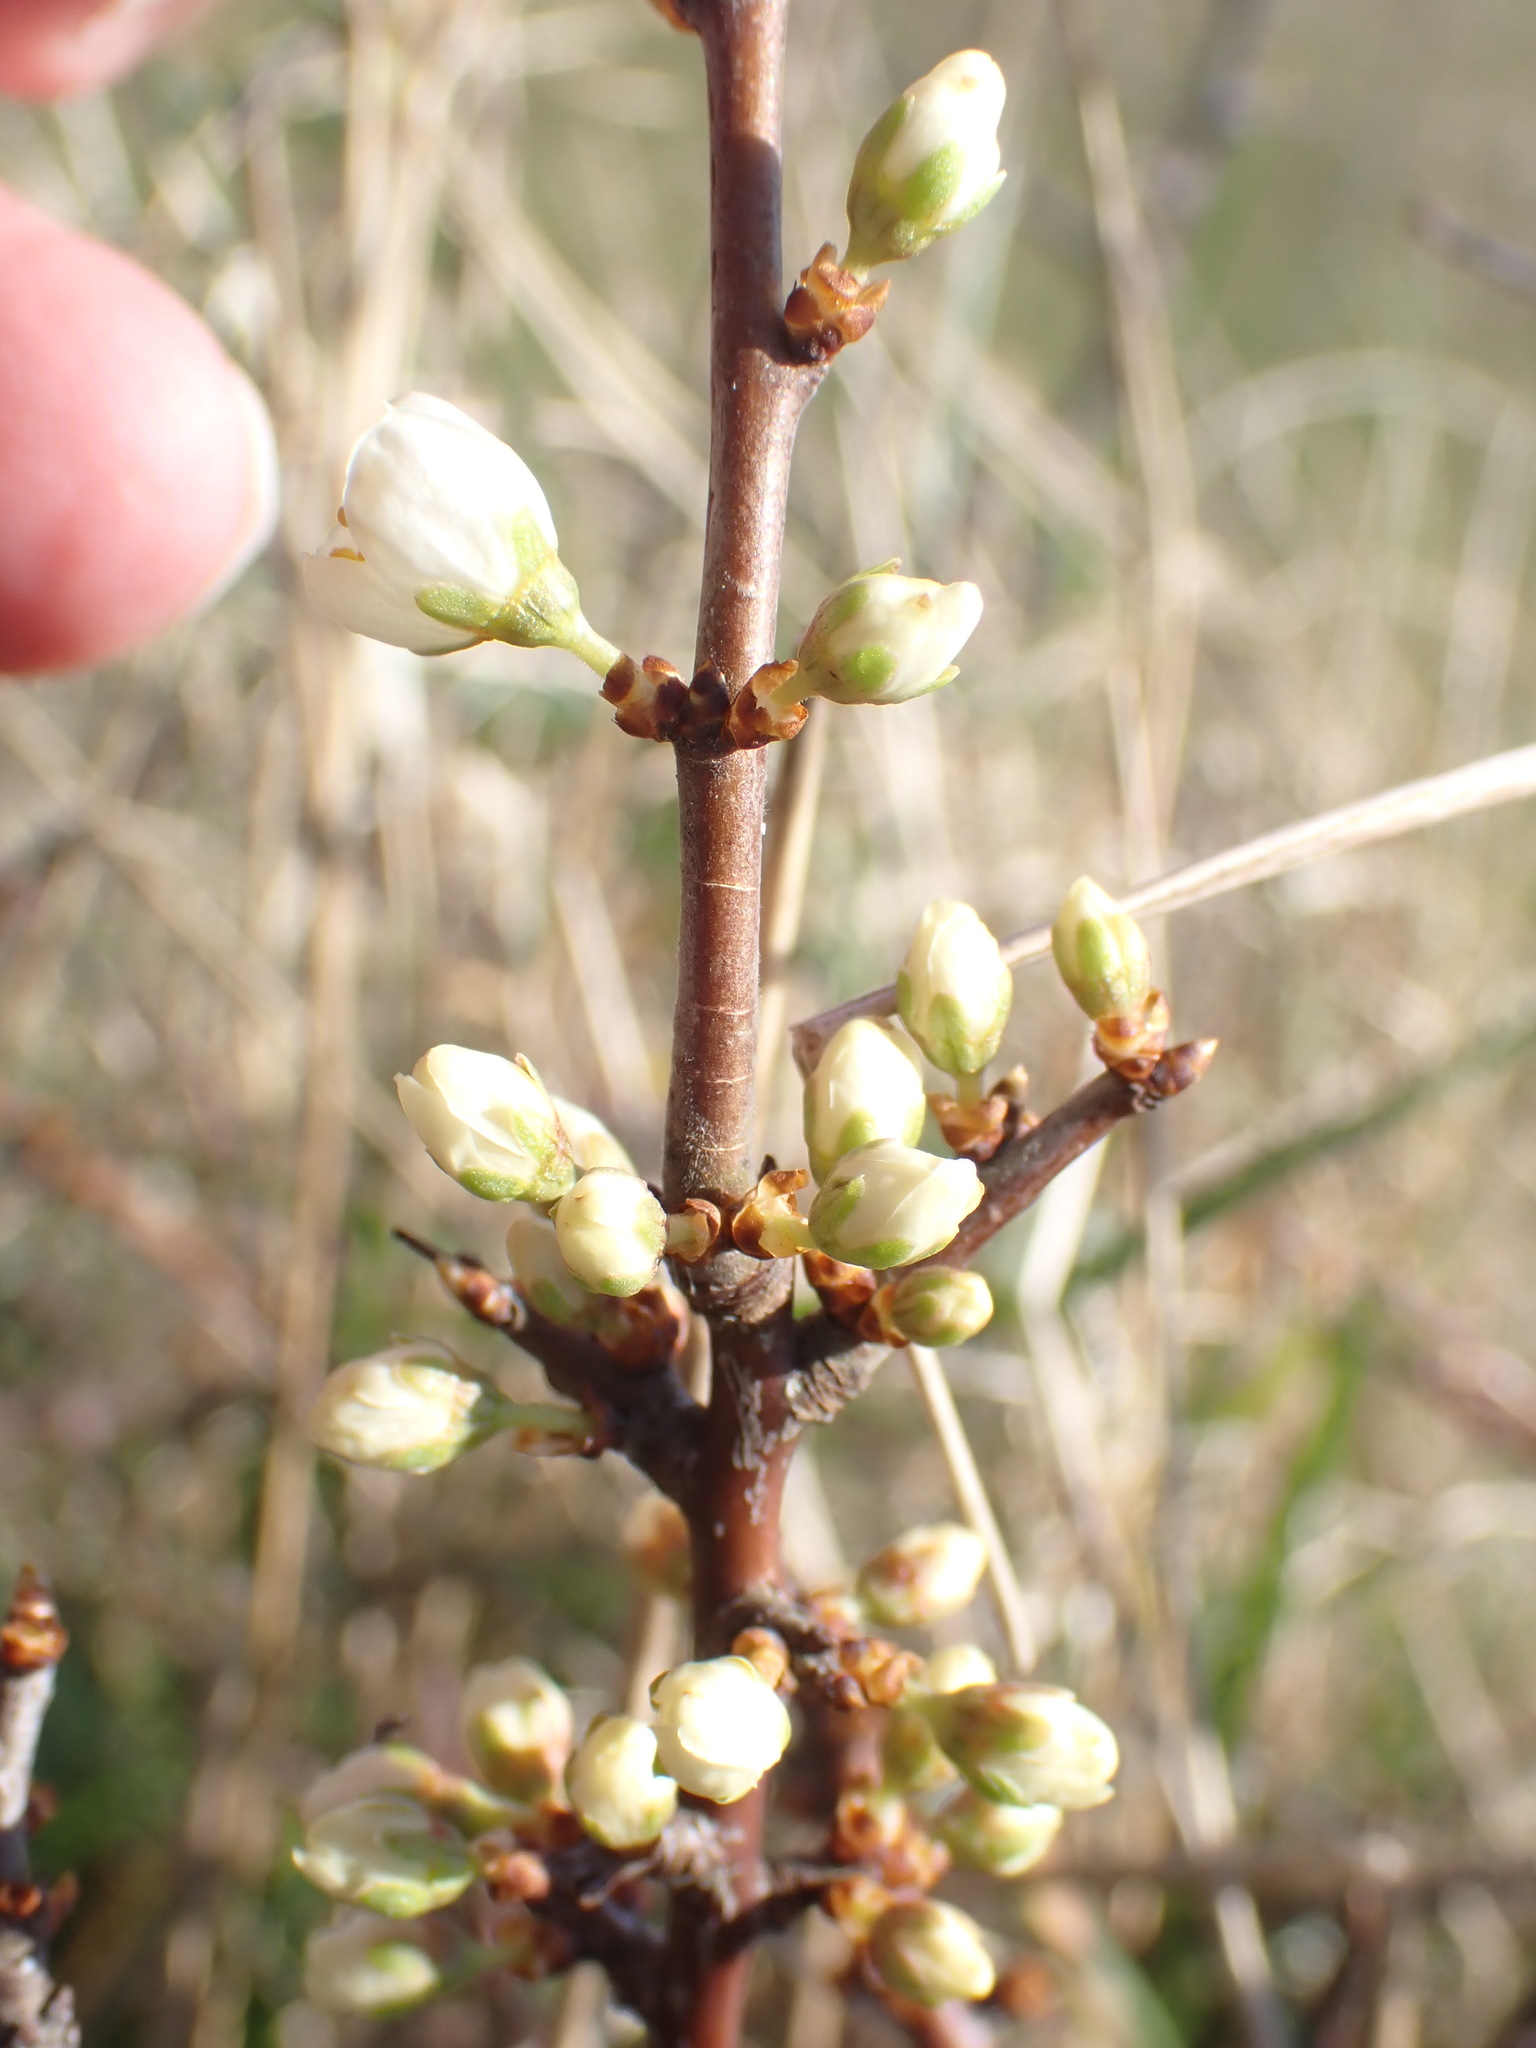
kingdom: Plantae
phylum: Tracheophyta
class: Magnoliopsida
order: Rosales
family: Rosaceae
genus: Prunus
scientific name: Prunus spinosa
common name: Blackthorn
